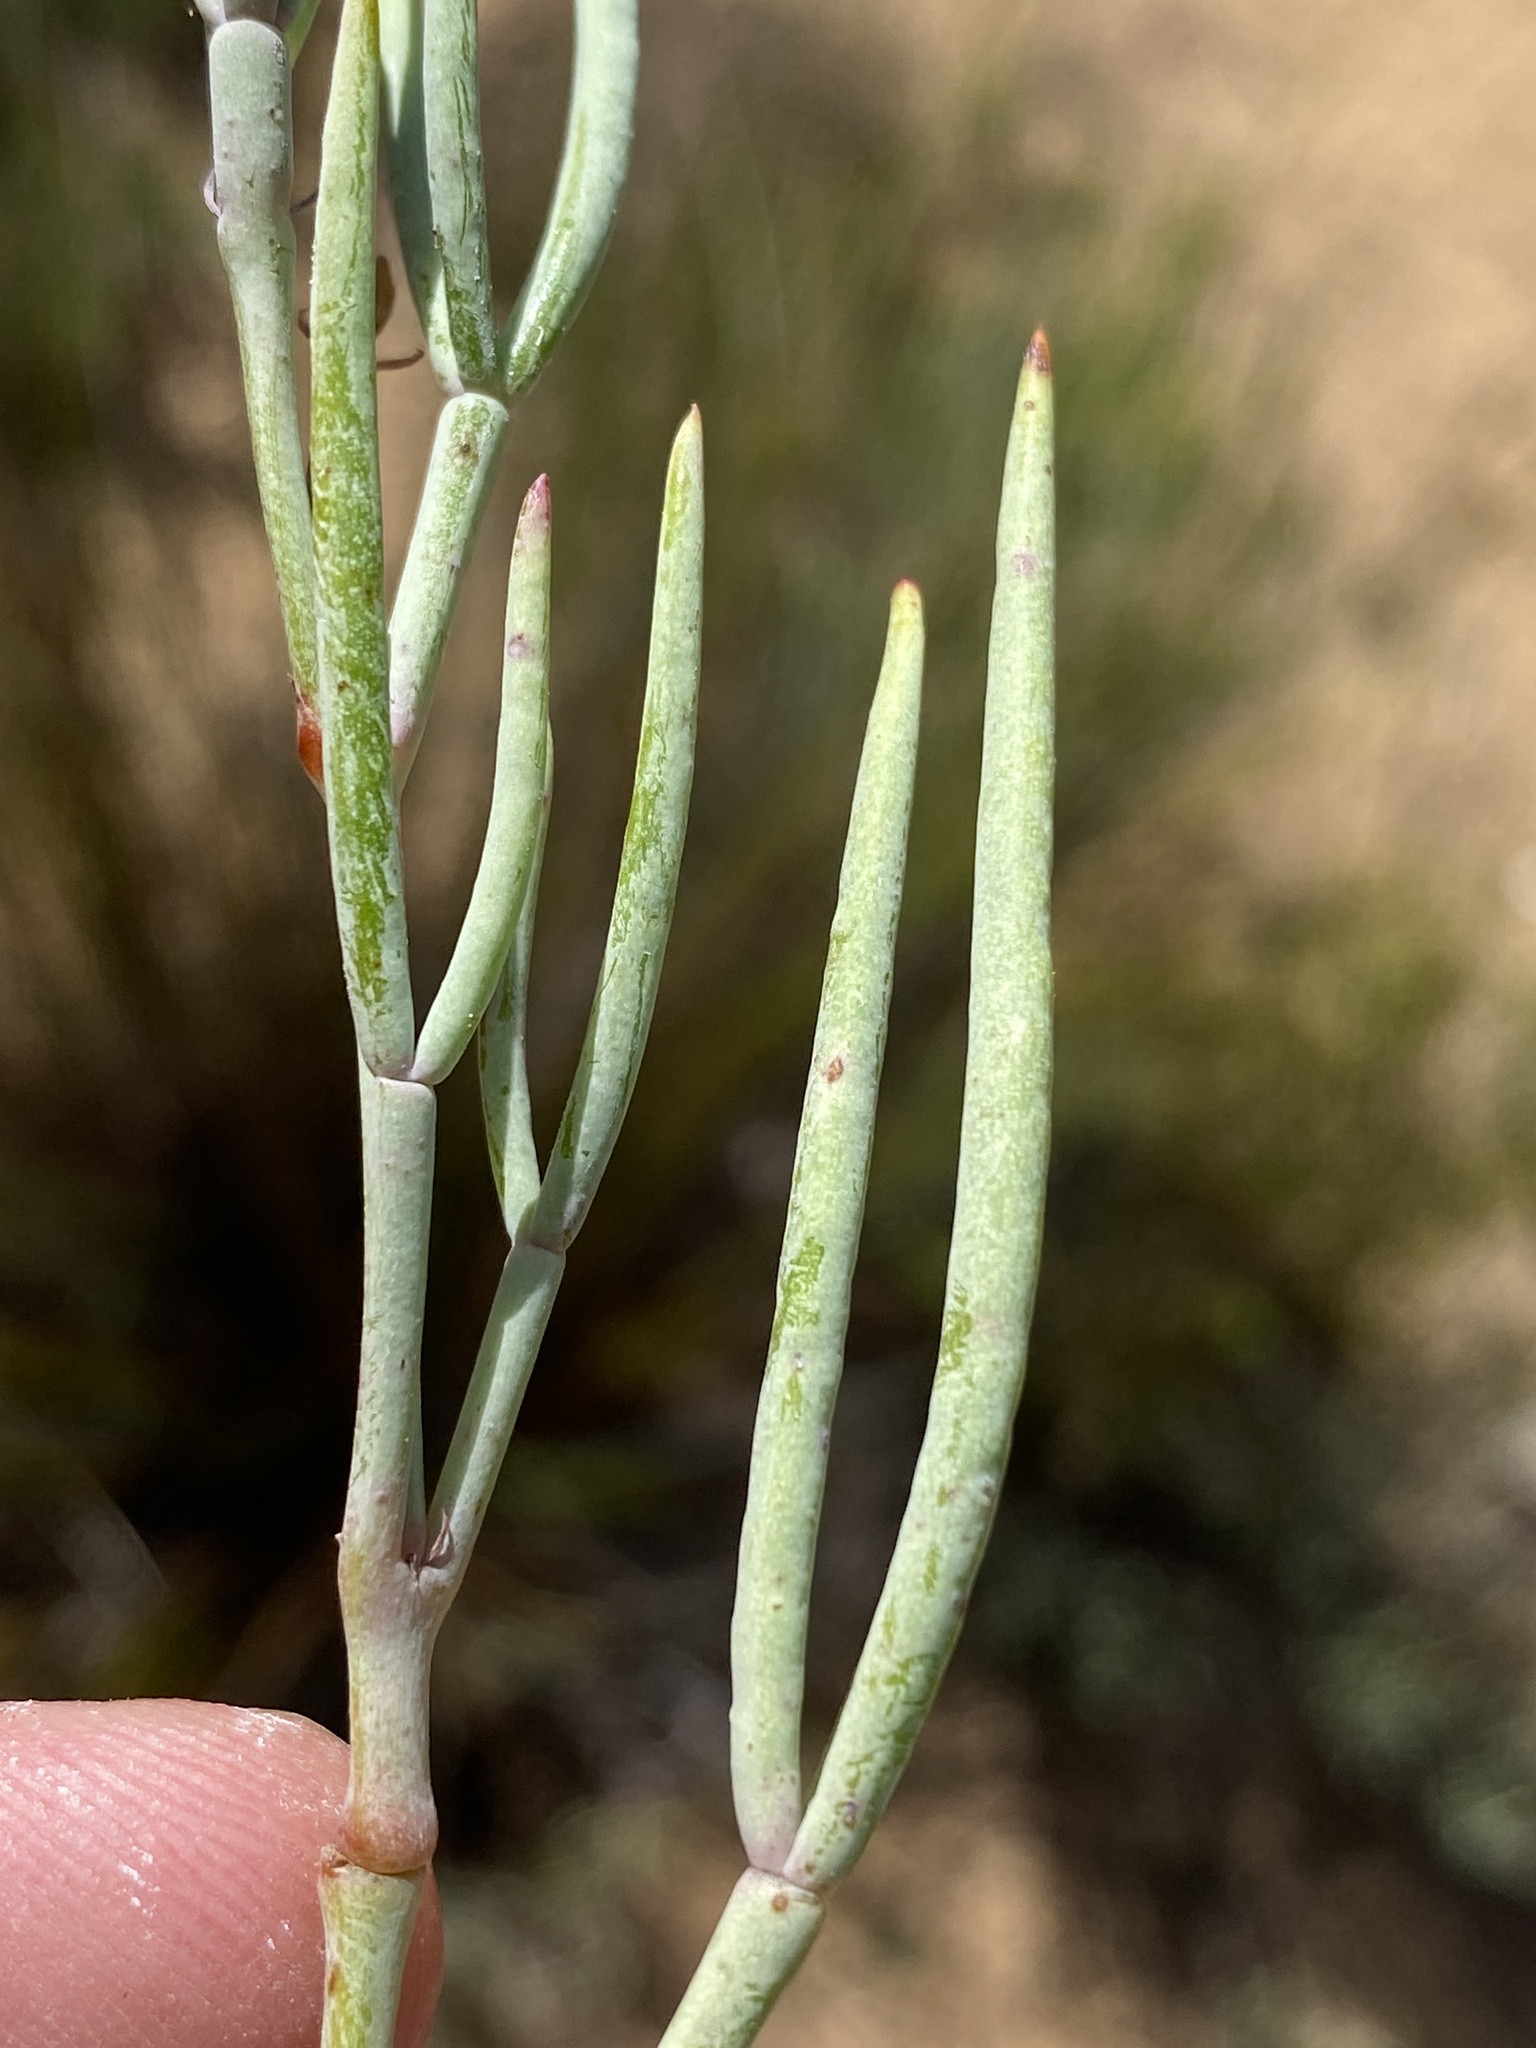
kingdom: Plantae
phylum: Tracheophyta
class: Magnoliopsida
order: Geraniales
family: Geraniaceae
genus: Pelargonium
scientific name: Pelargonium laevigatum
